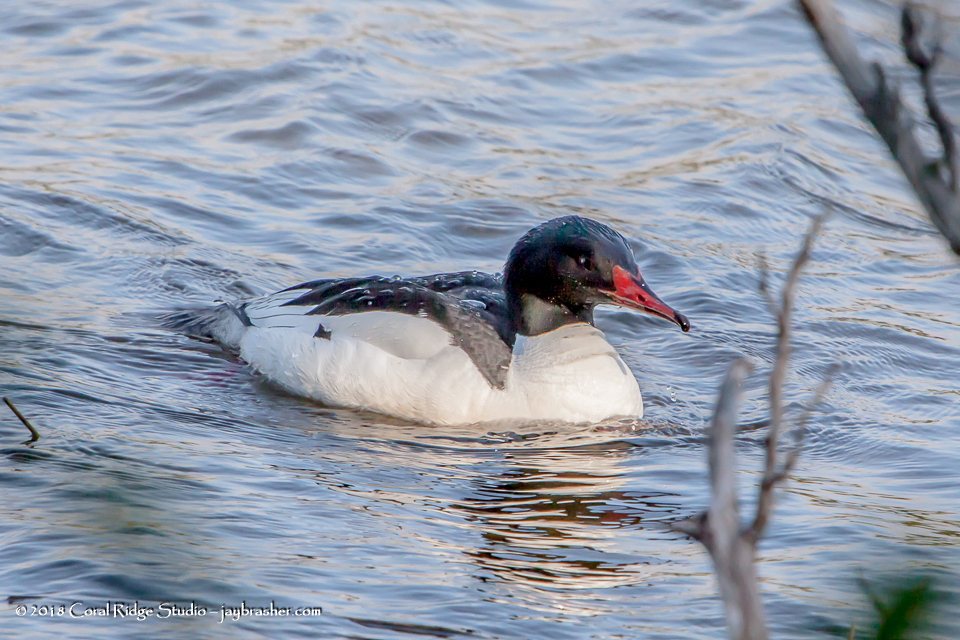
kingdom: Animalia
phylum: Chordata
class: Aves
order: Anseriformes
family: Anatidae
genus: Mergus
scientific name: Mergus merganser
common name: Common merganser
